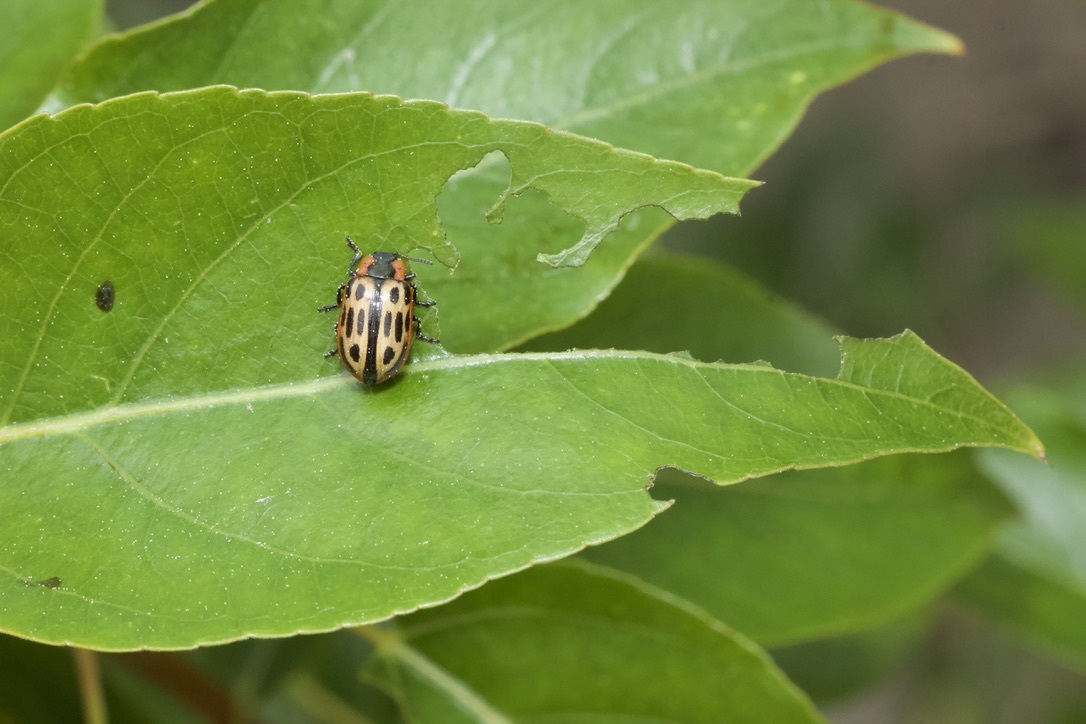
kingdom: Animalia
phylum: Arthropoda
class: Insecta
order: Coleoptera
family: Chrysomelidae
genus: Aethiopocassis
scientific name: Aethiopocassis scripta
